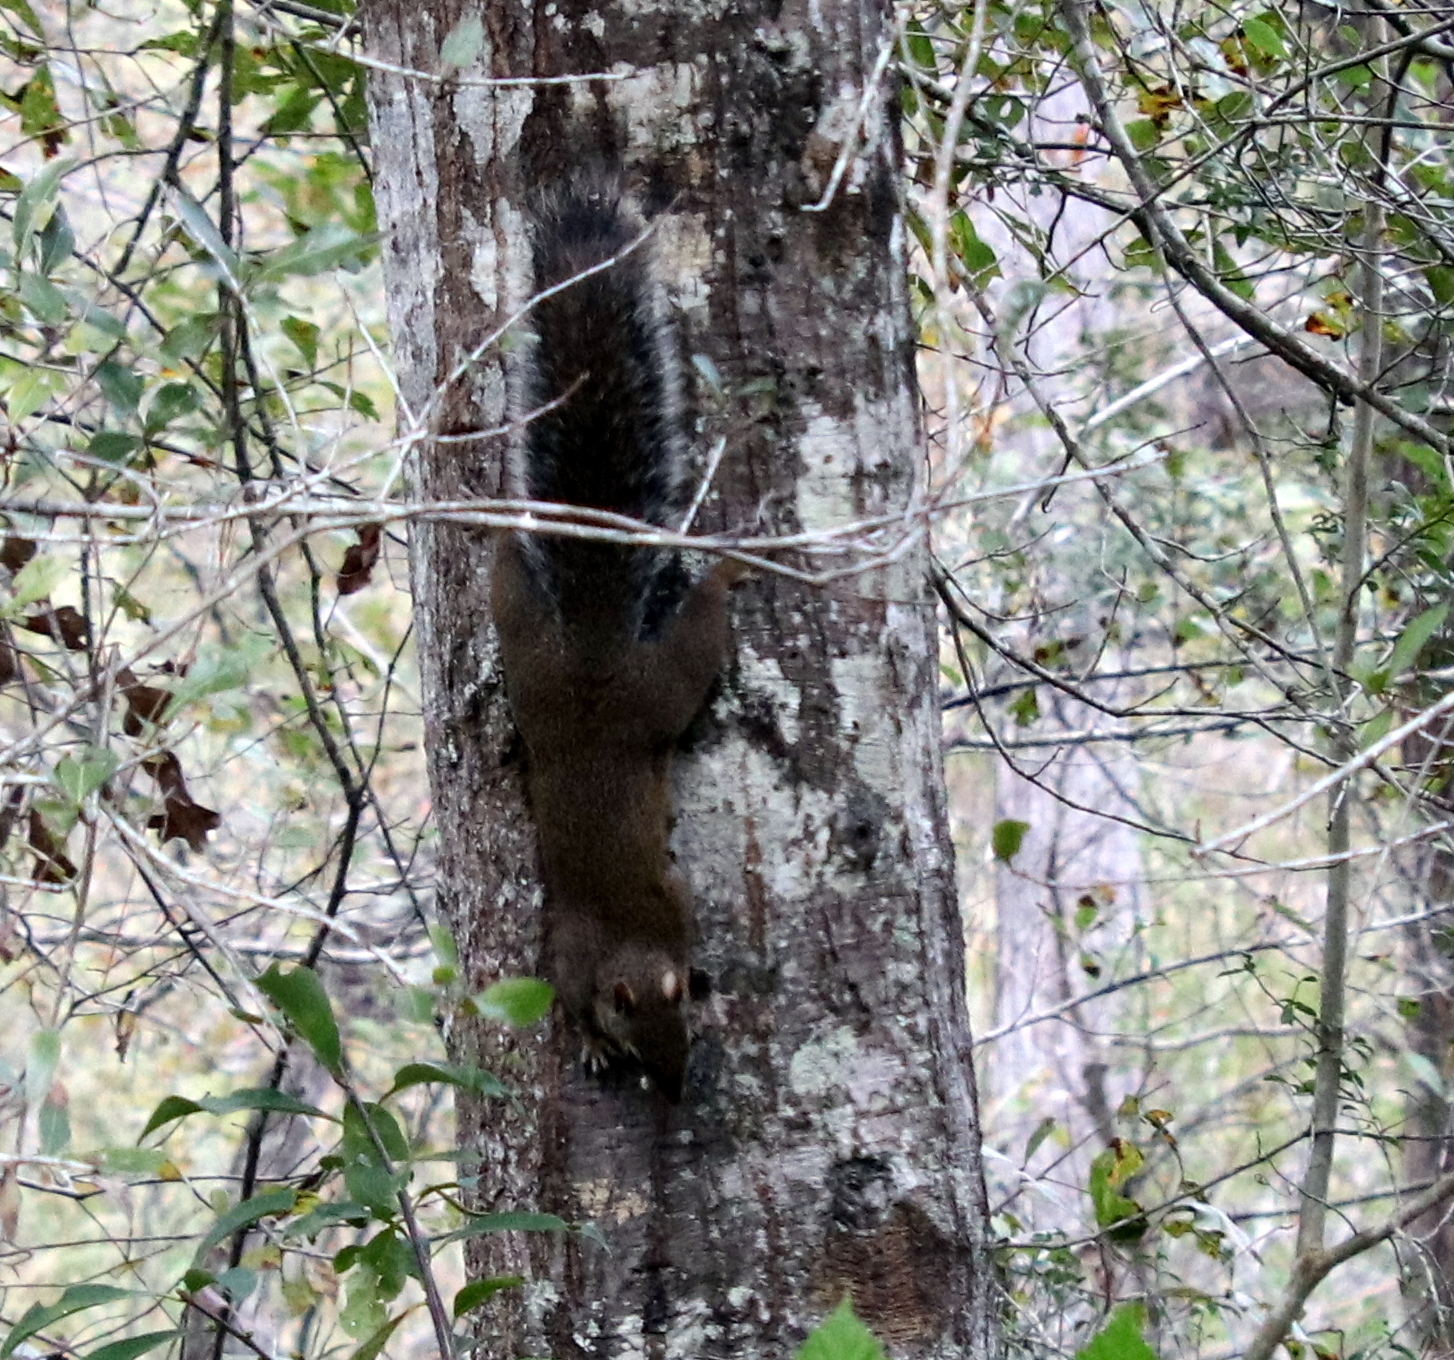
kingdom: Animalia
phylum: Chordata
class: Mammalia
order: Rodentia
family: Sciuridae
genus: Sciurus
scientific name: Sciurus carolinensis
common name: Eastern gray squirrel
